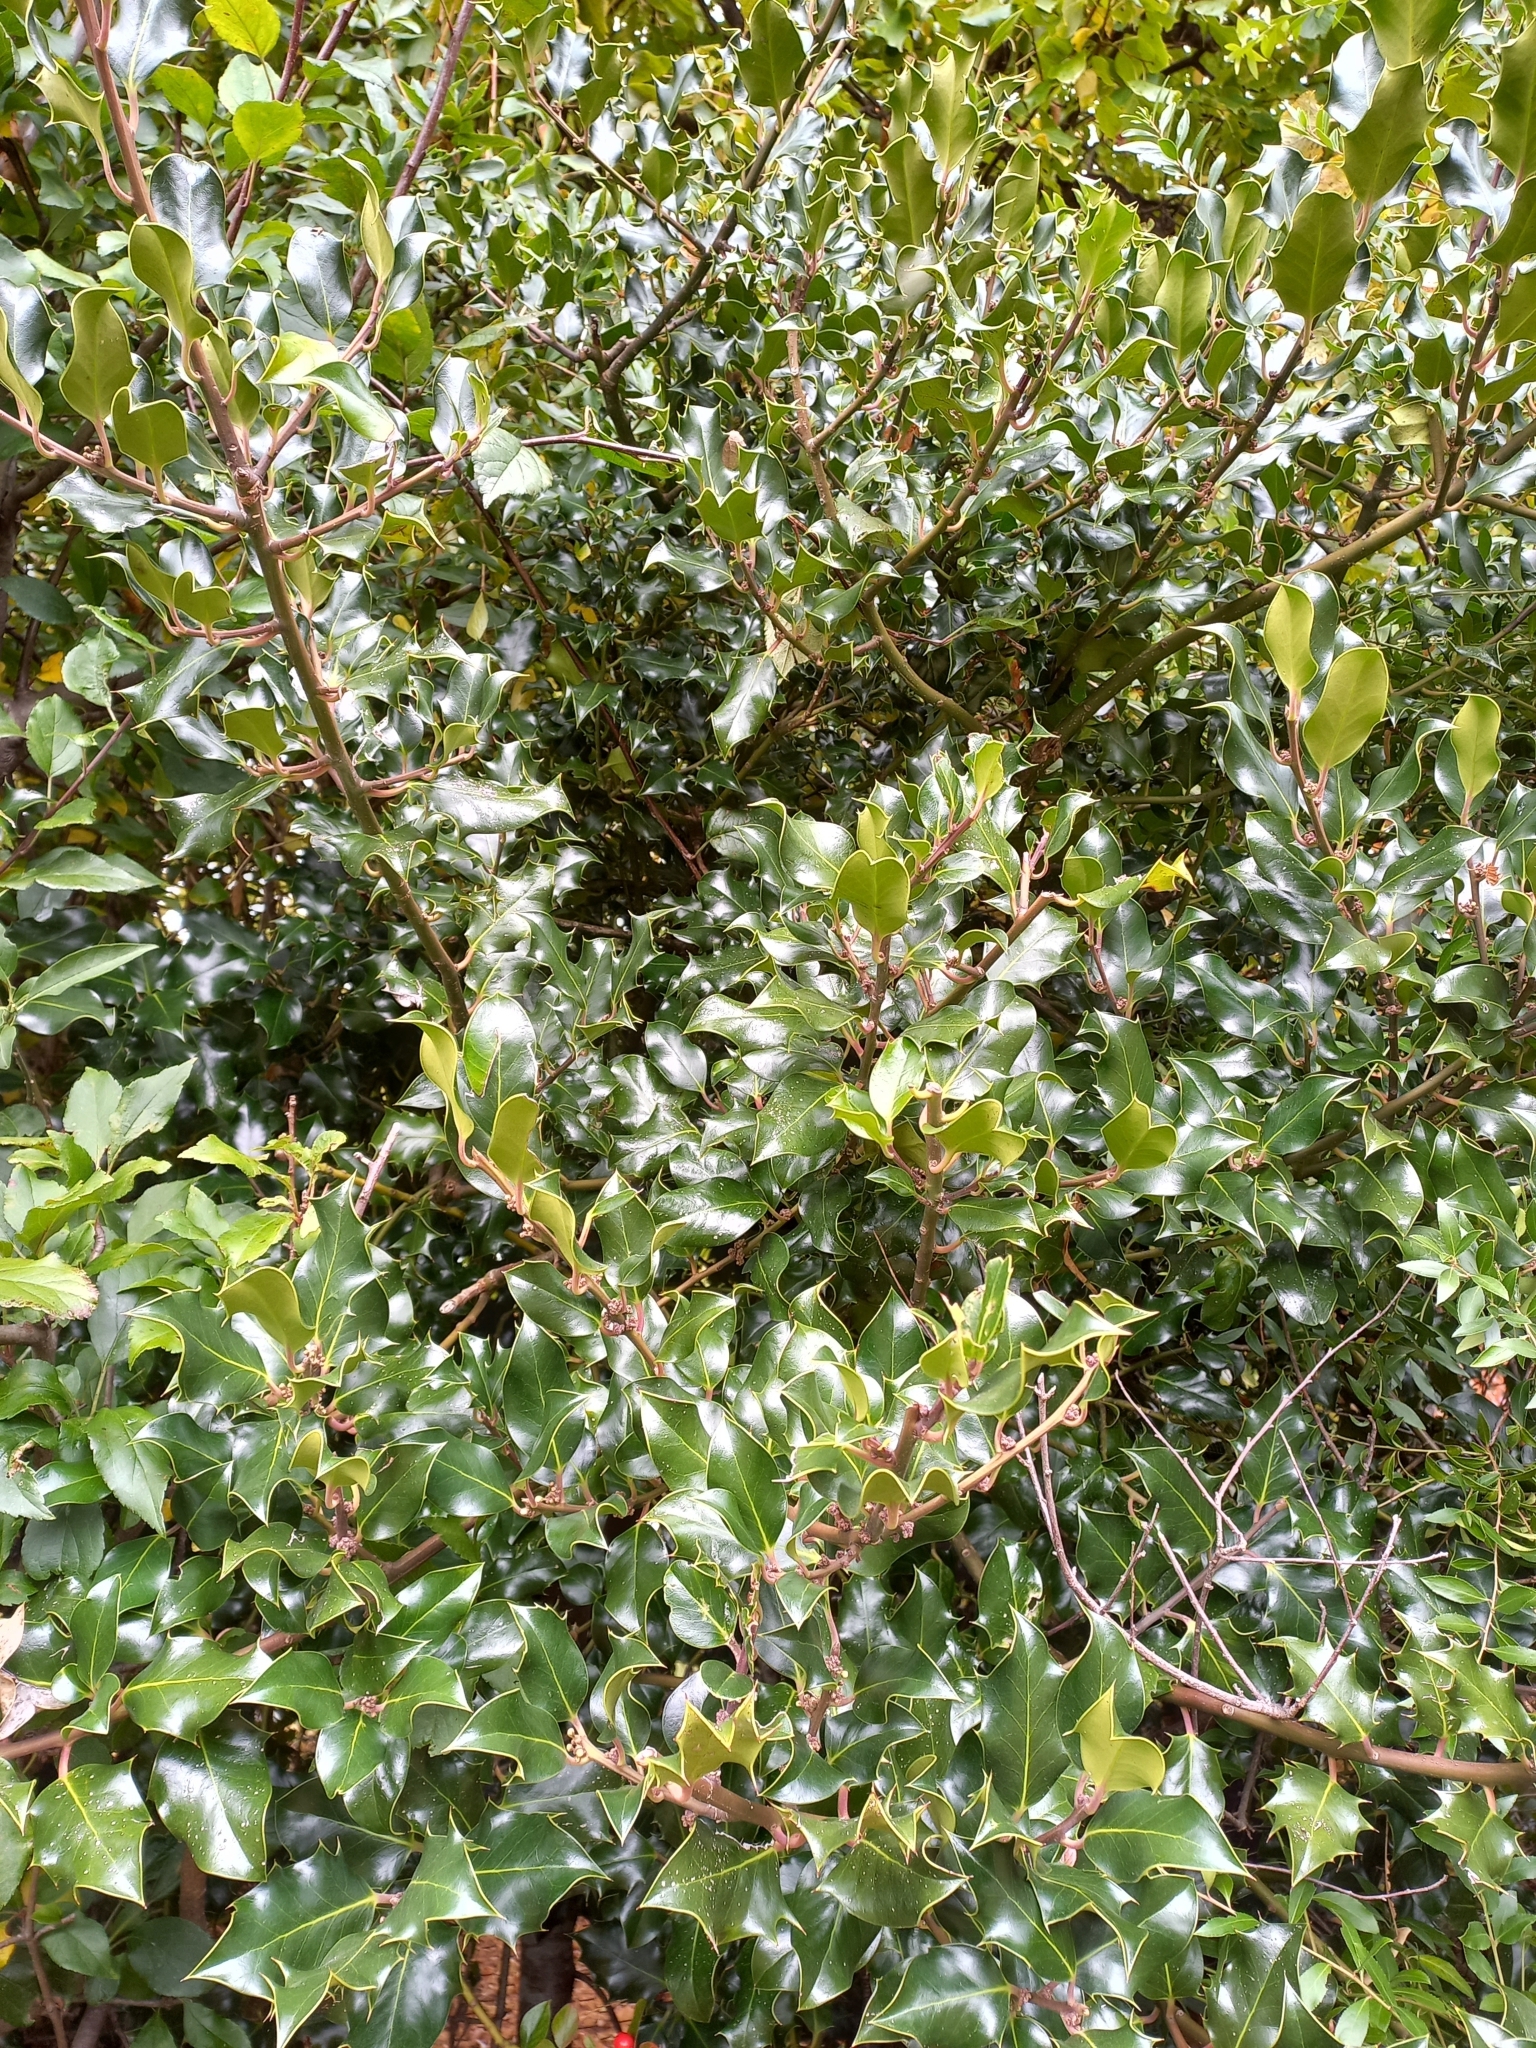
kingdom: Plantae
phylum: Tracheophyta
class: Magnoliopsida
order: Aquifoliales
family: Aquifoliaceae
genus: Ilex
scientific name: Ilex aquifolium
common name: English holly
